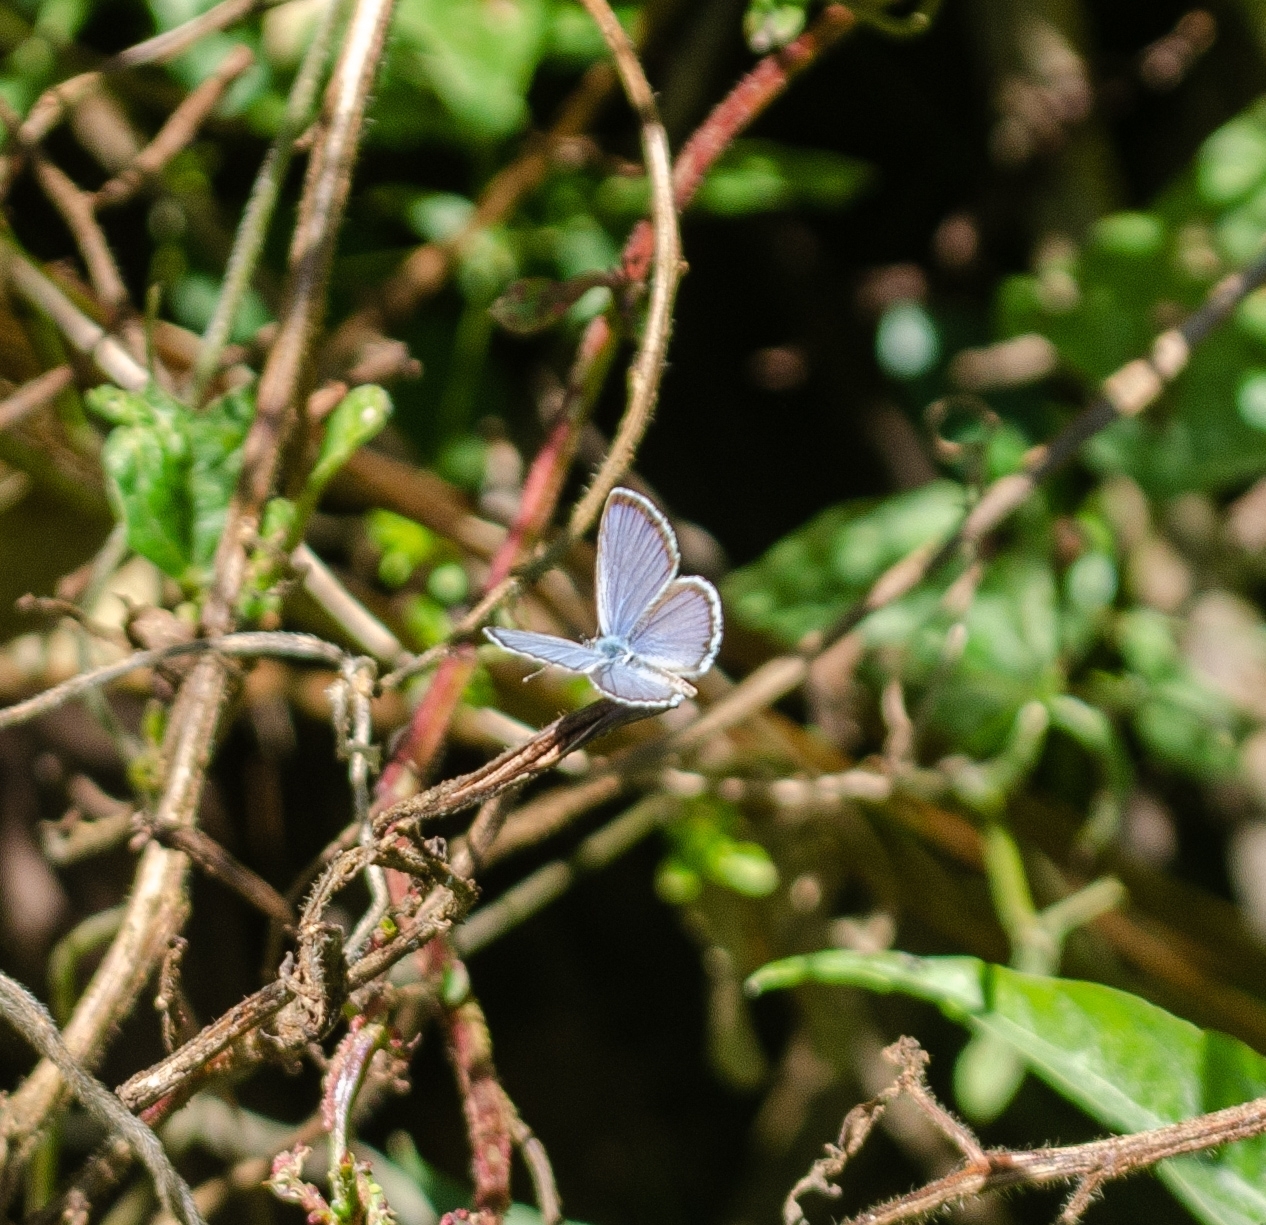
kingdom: Animalia
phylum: Arthropoda
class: Insecta
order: Lepidoptera
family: Lycaenidae
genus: Hemiargus
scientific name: Hemiargus hanno
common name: Common blue
